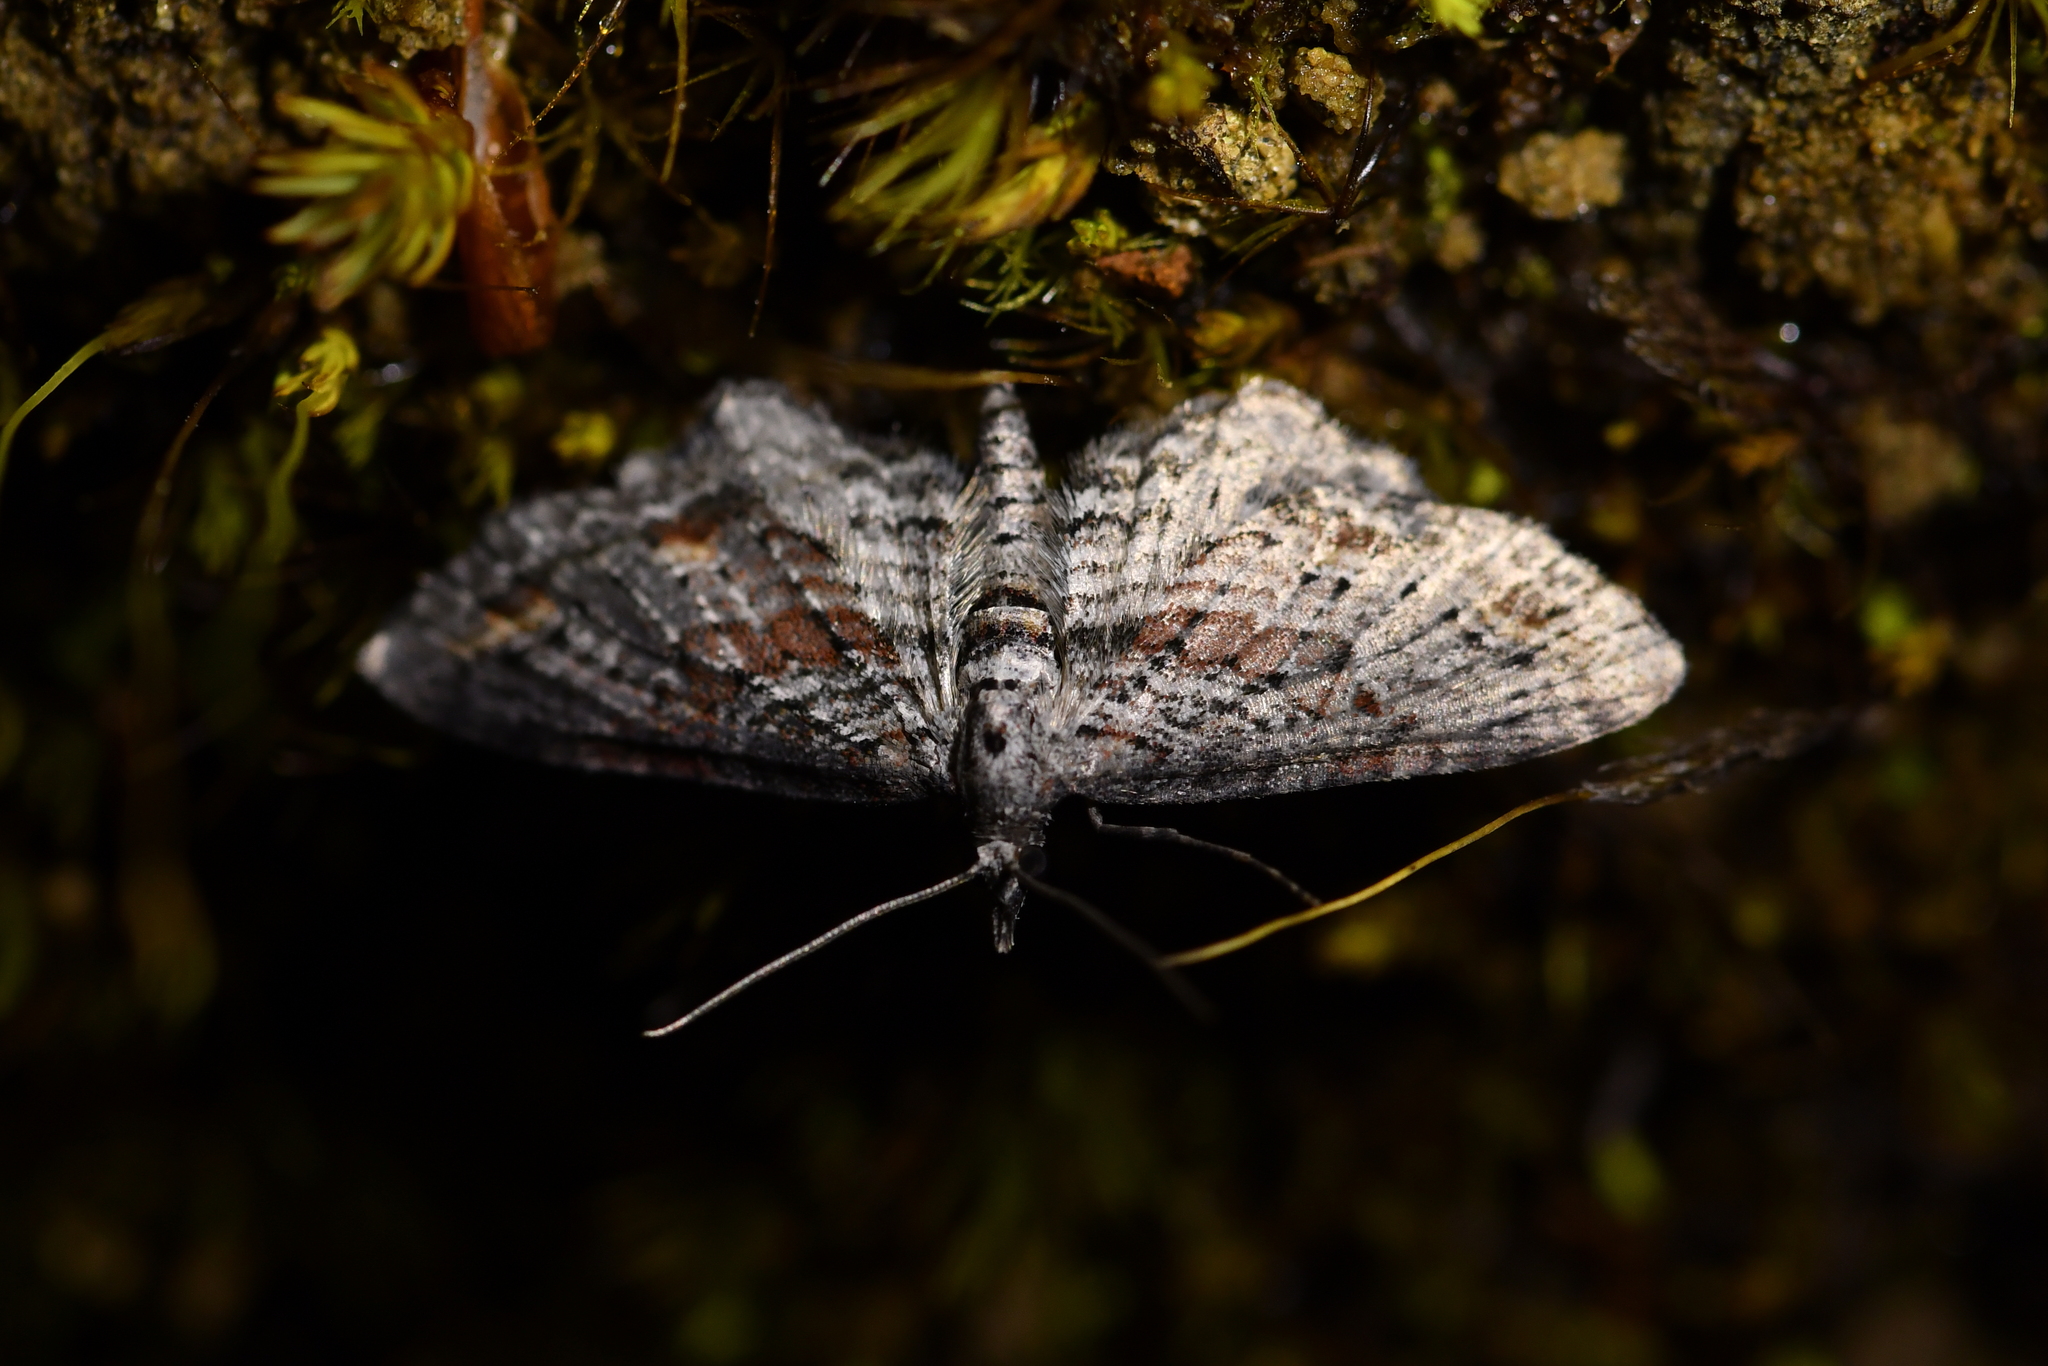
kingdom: Animalia
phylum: Arthropoda
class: Insecta
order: Lepidoptera
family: Geometridae
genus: Pasiphila
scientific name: Pasiphila humilis
